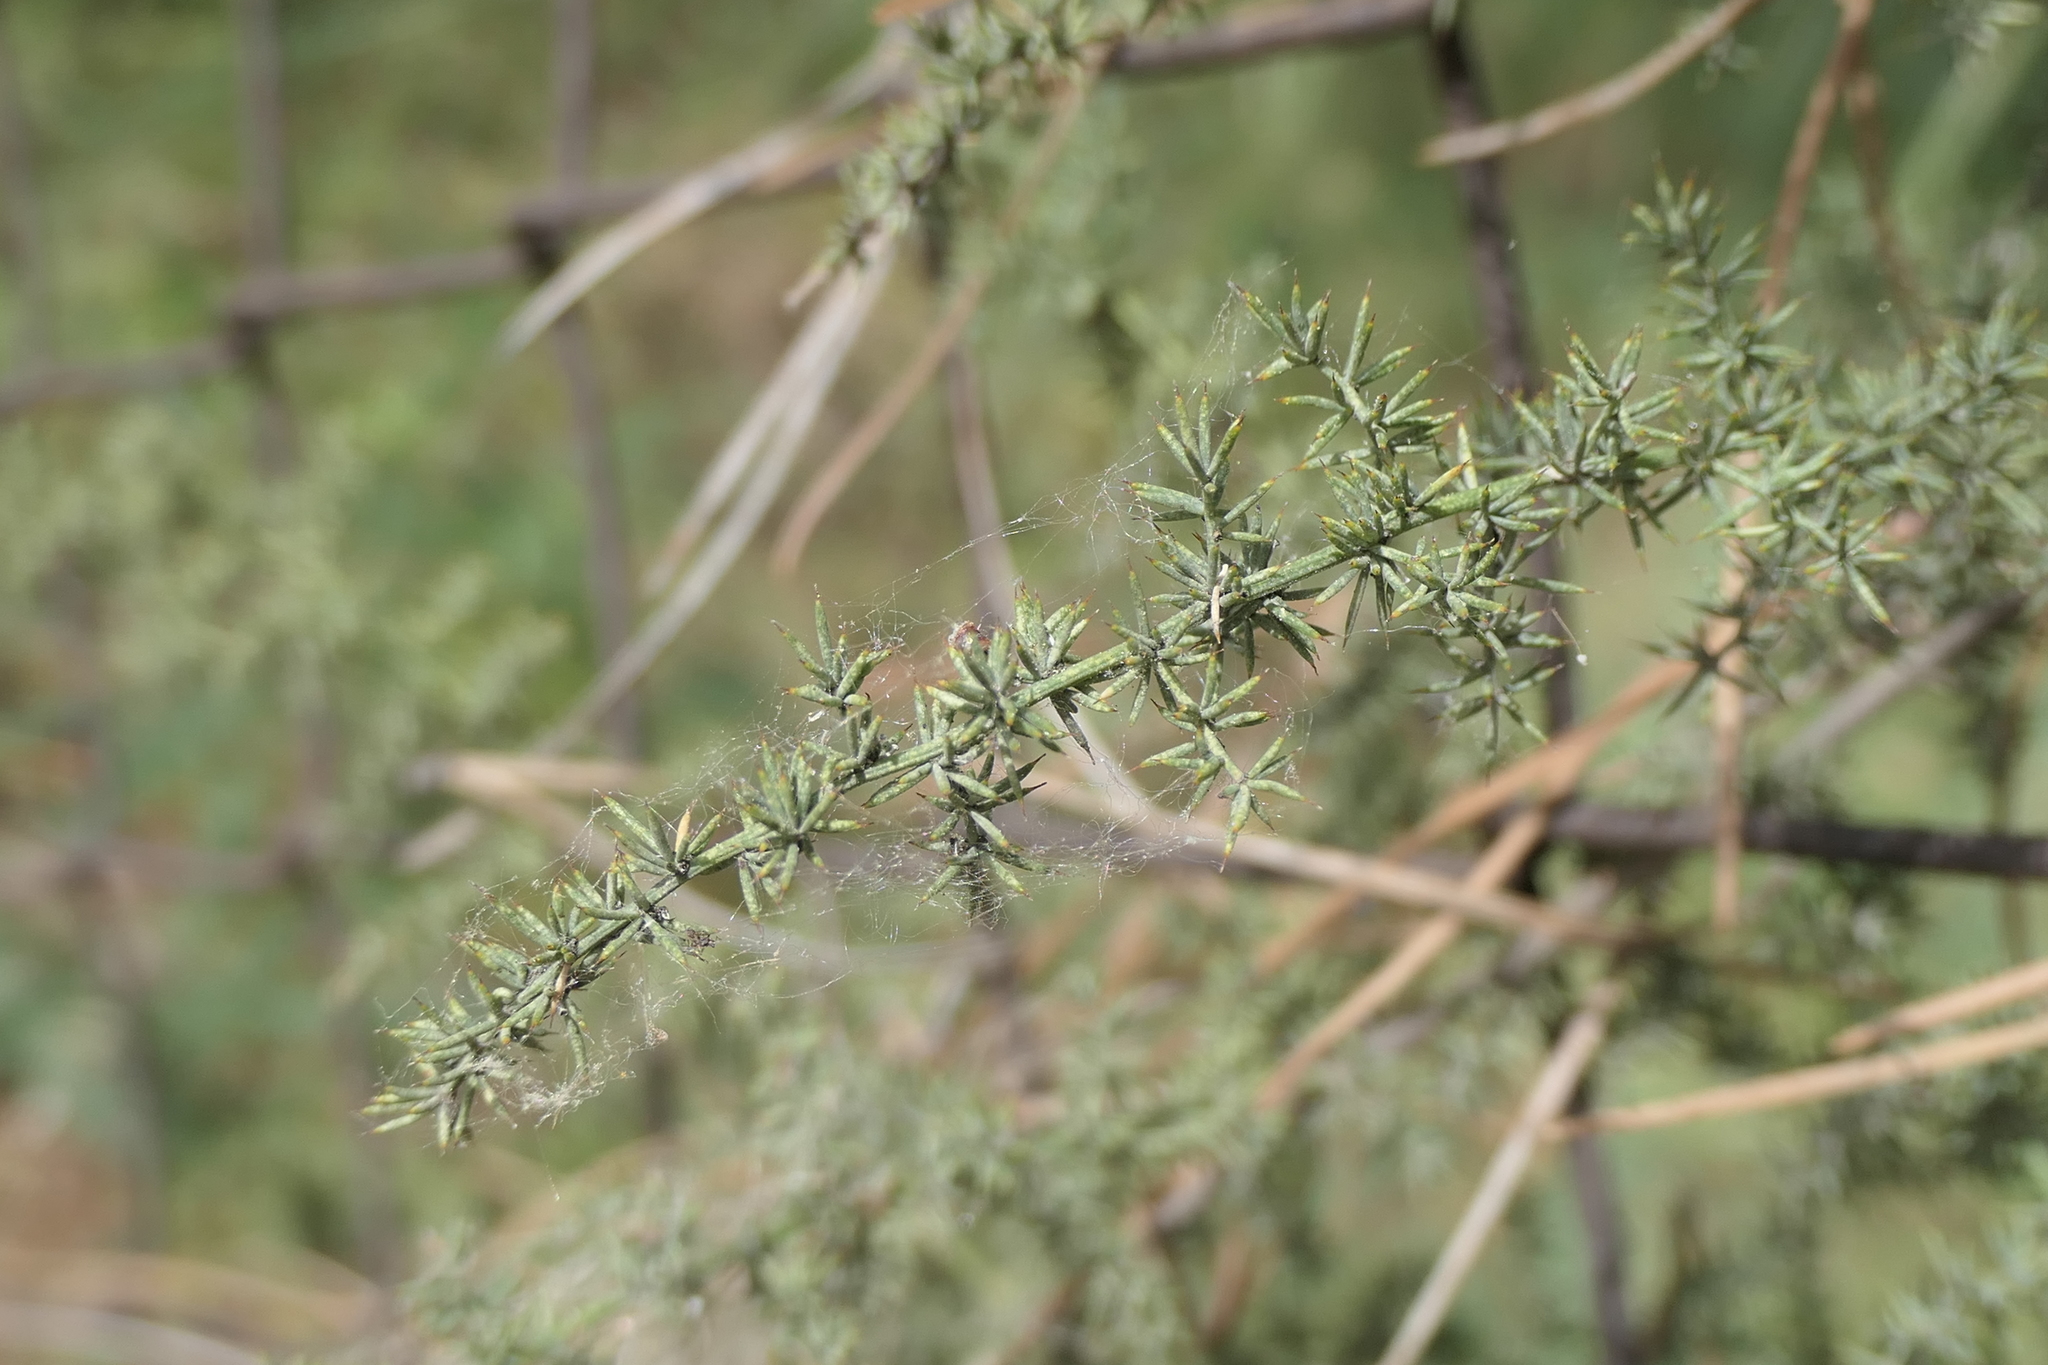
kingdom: Plantae
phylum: Tracheophyta
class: Liliopsida
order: Asparagales
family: Asparagaceae
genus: Asparagus
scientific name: Asparagus acutifolius
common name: Wild asparagus
